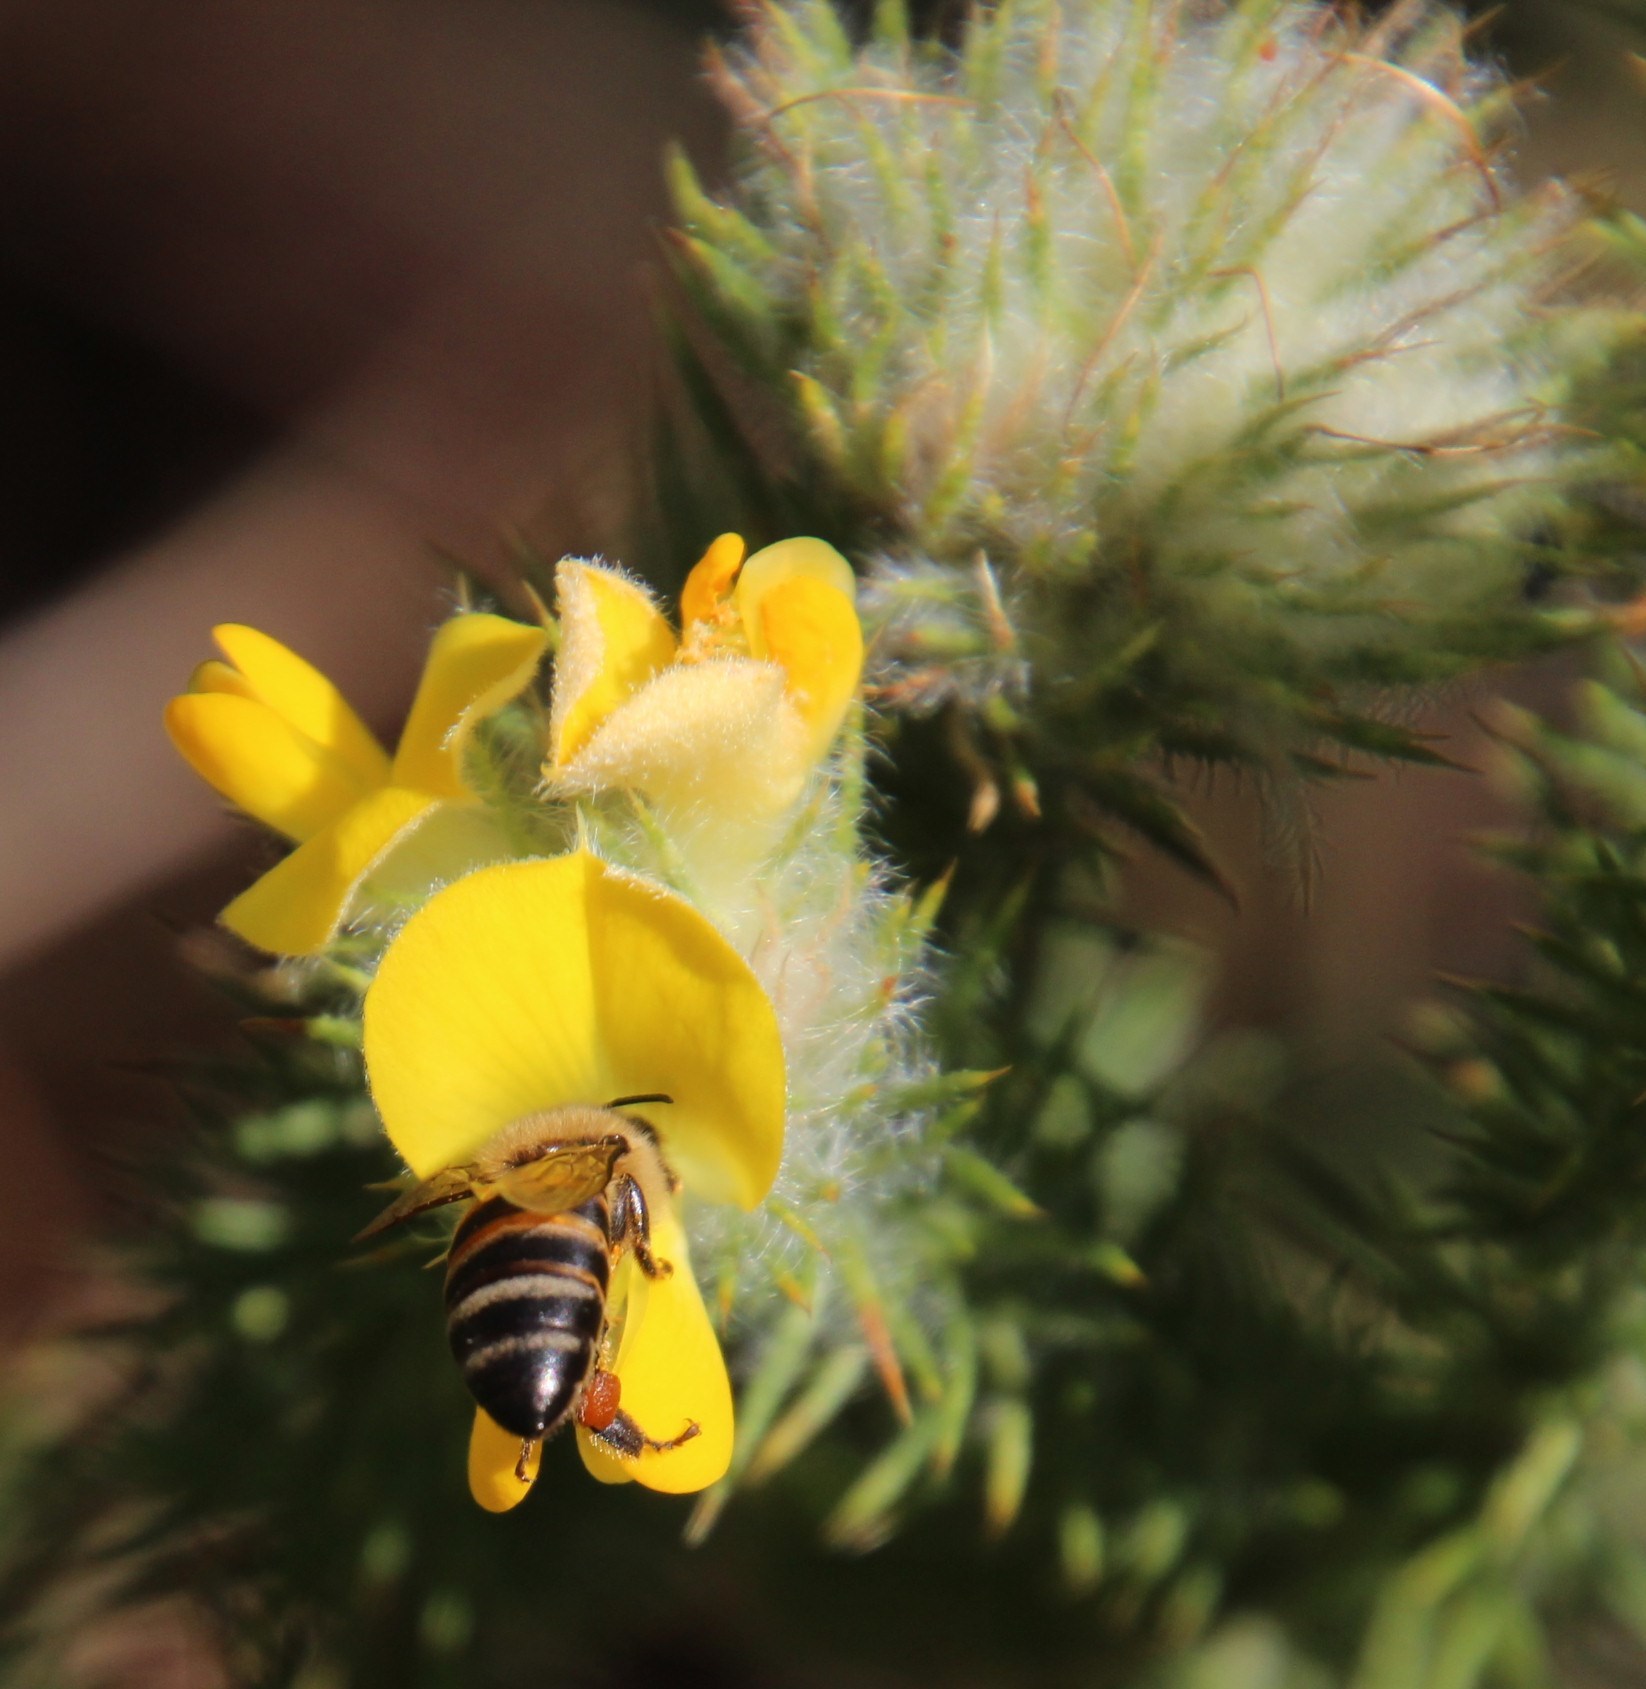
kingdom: Animalia
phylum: Arthropoda
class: Insecta
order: Hymenoptera
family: Apidae
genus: Apis
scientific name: Apis mellifera
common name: Honey bee
